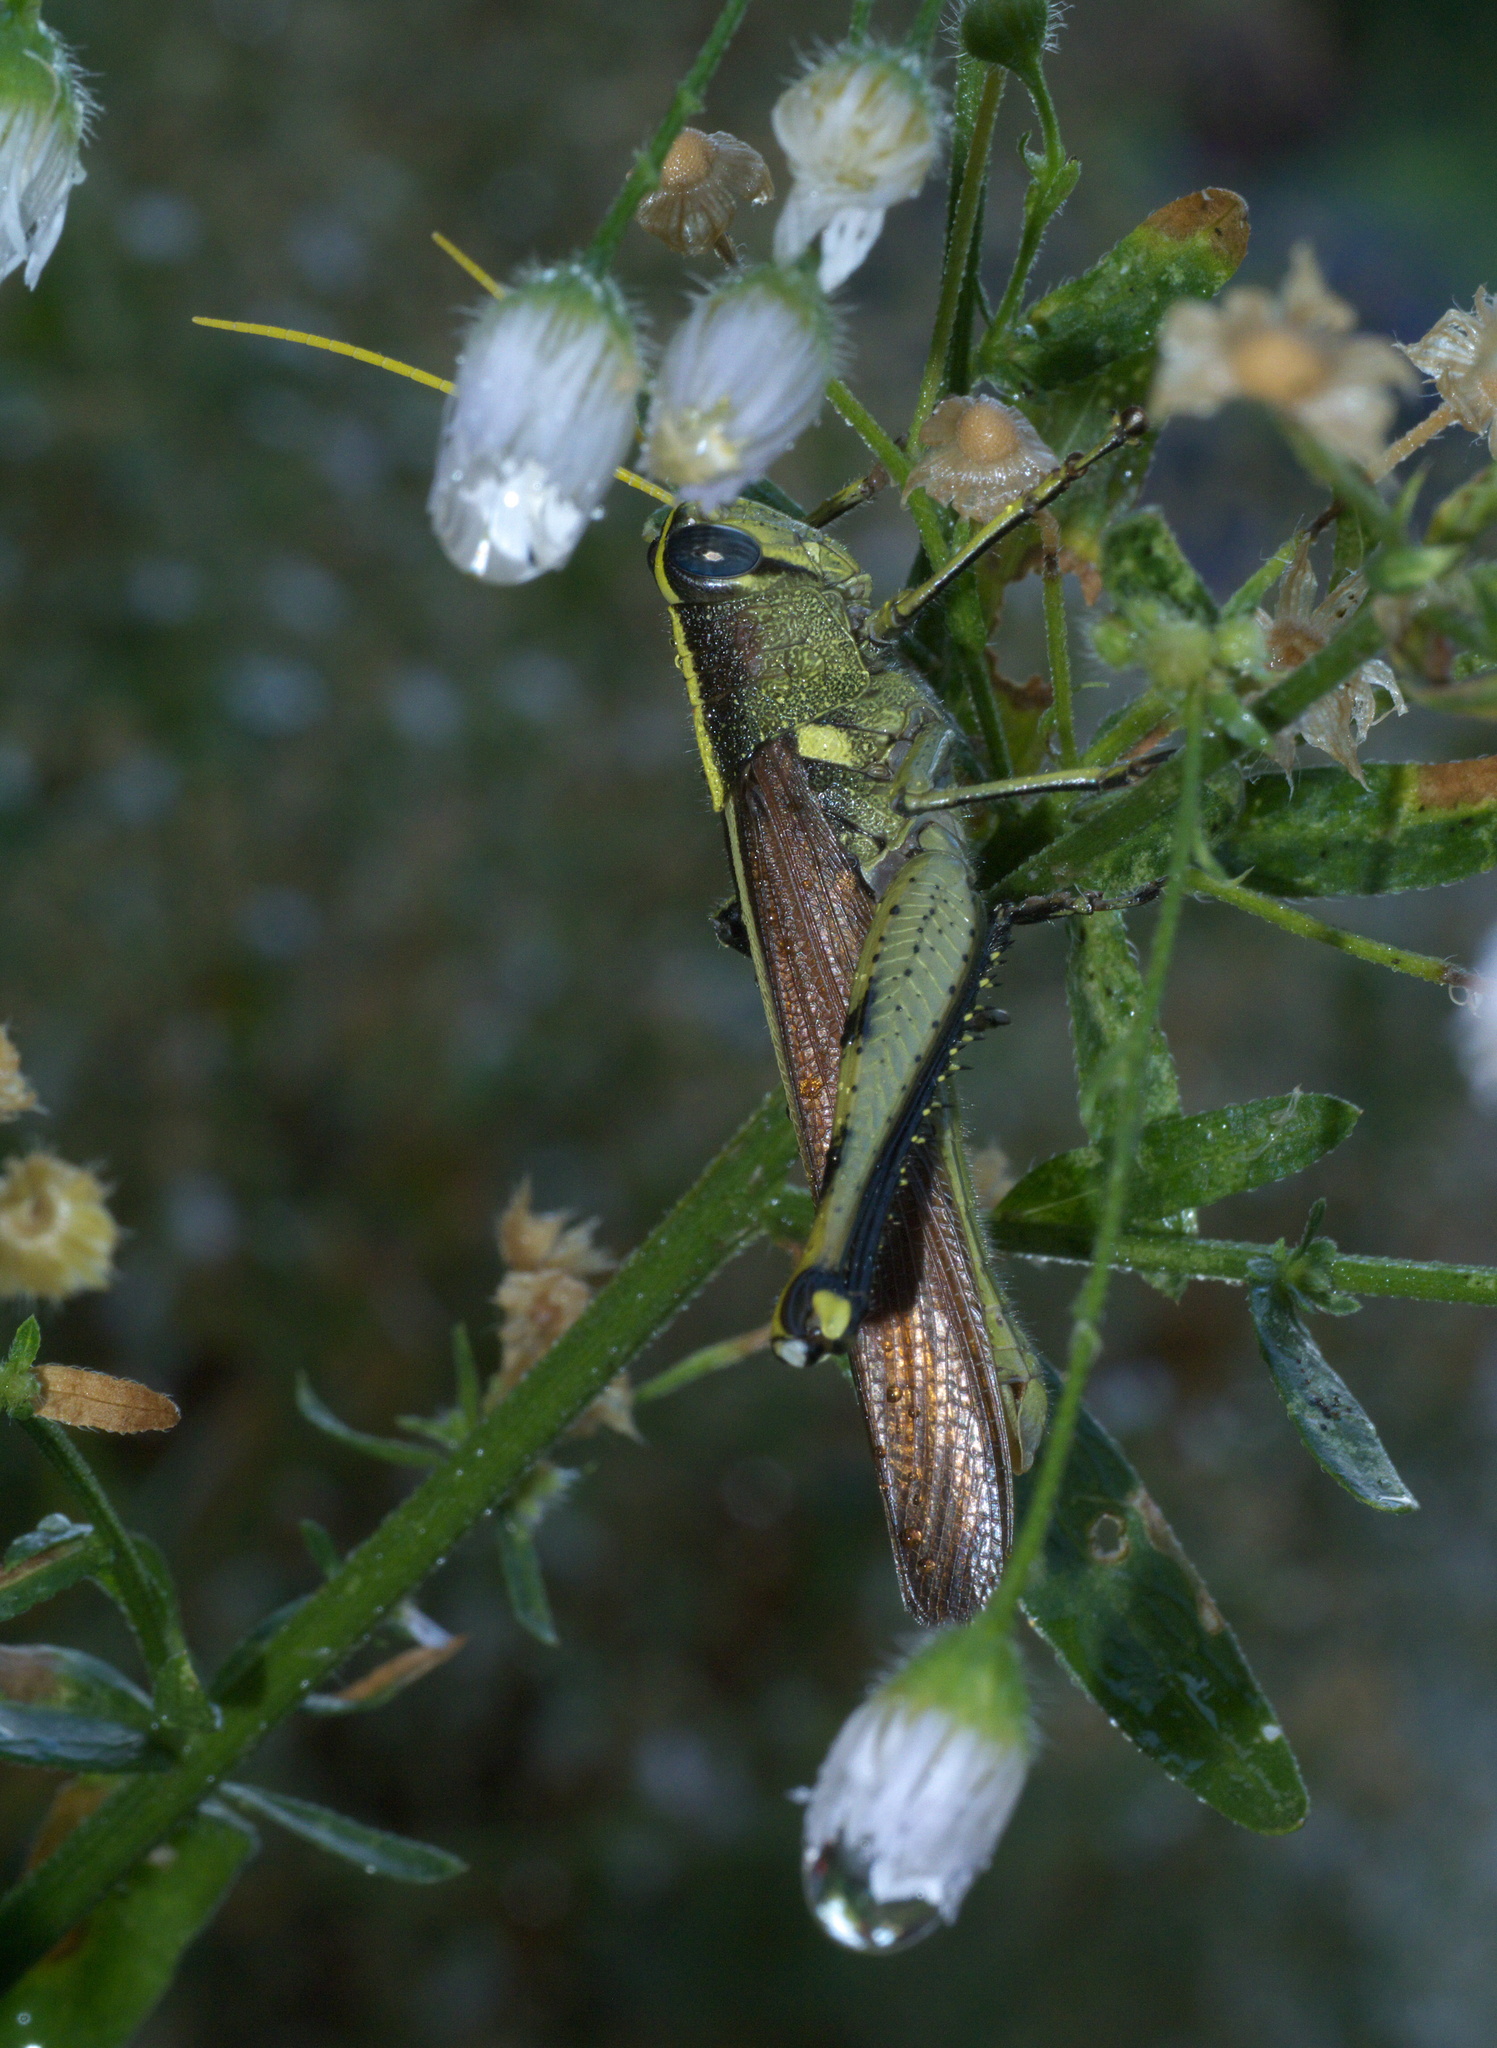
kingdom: Animalia
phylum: Arthropoda
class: Insecta
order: Orthoptera
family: Acrididae
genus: Schistocerca
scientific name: Schistocerca obscura
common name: Obscure bird grasshopper
